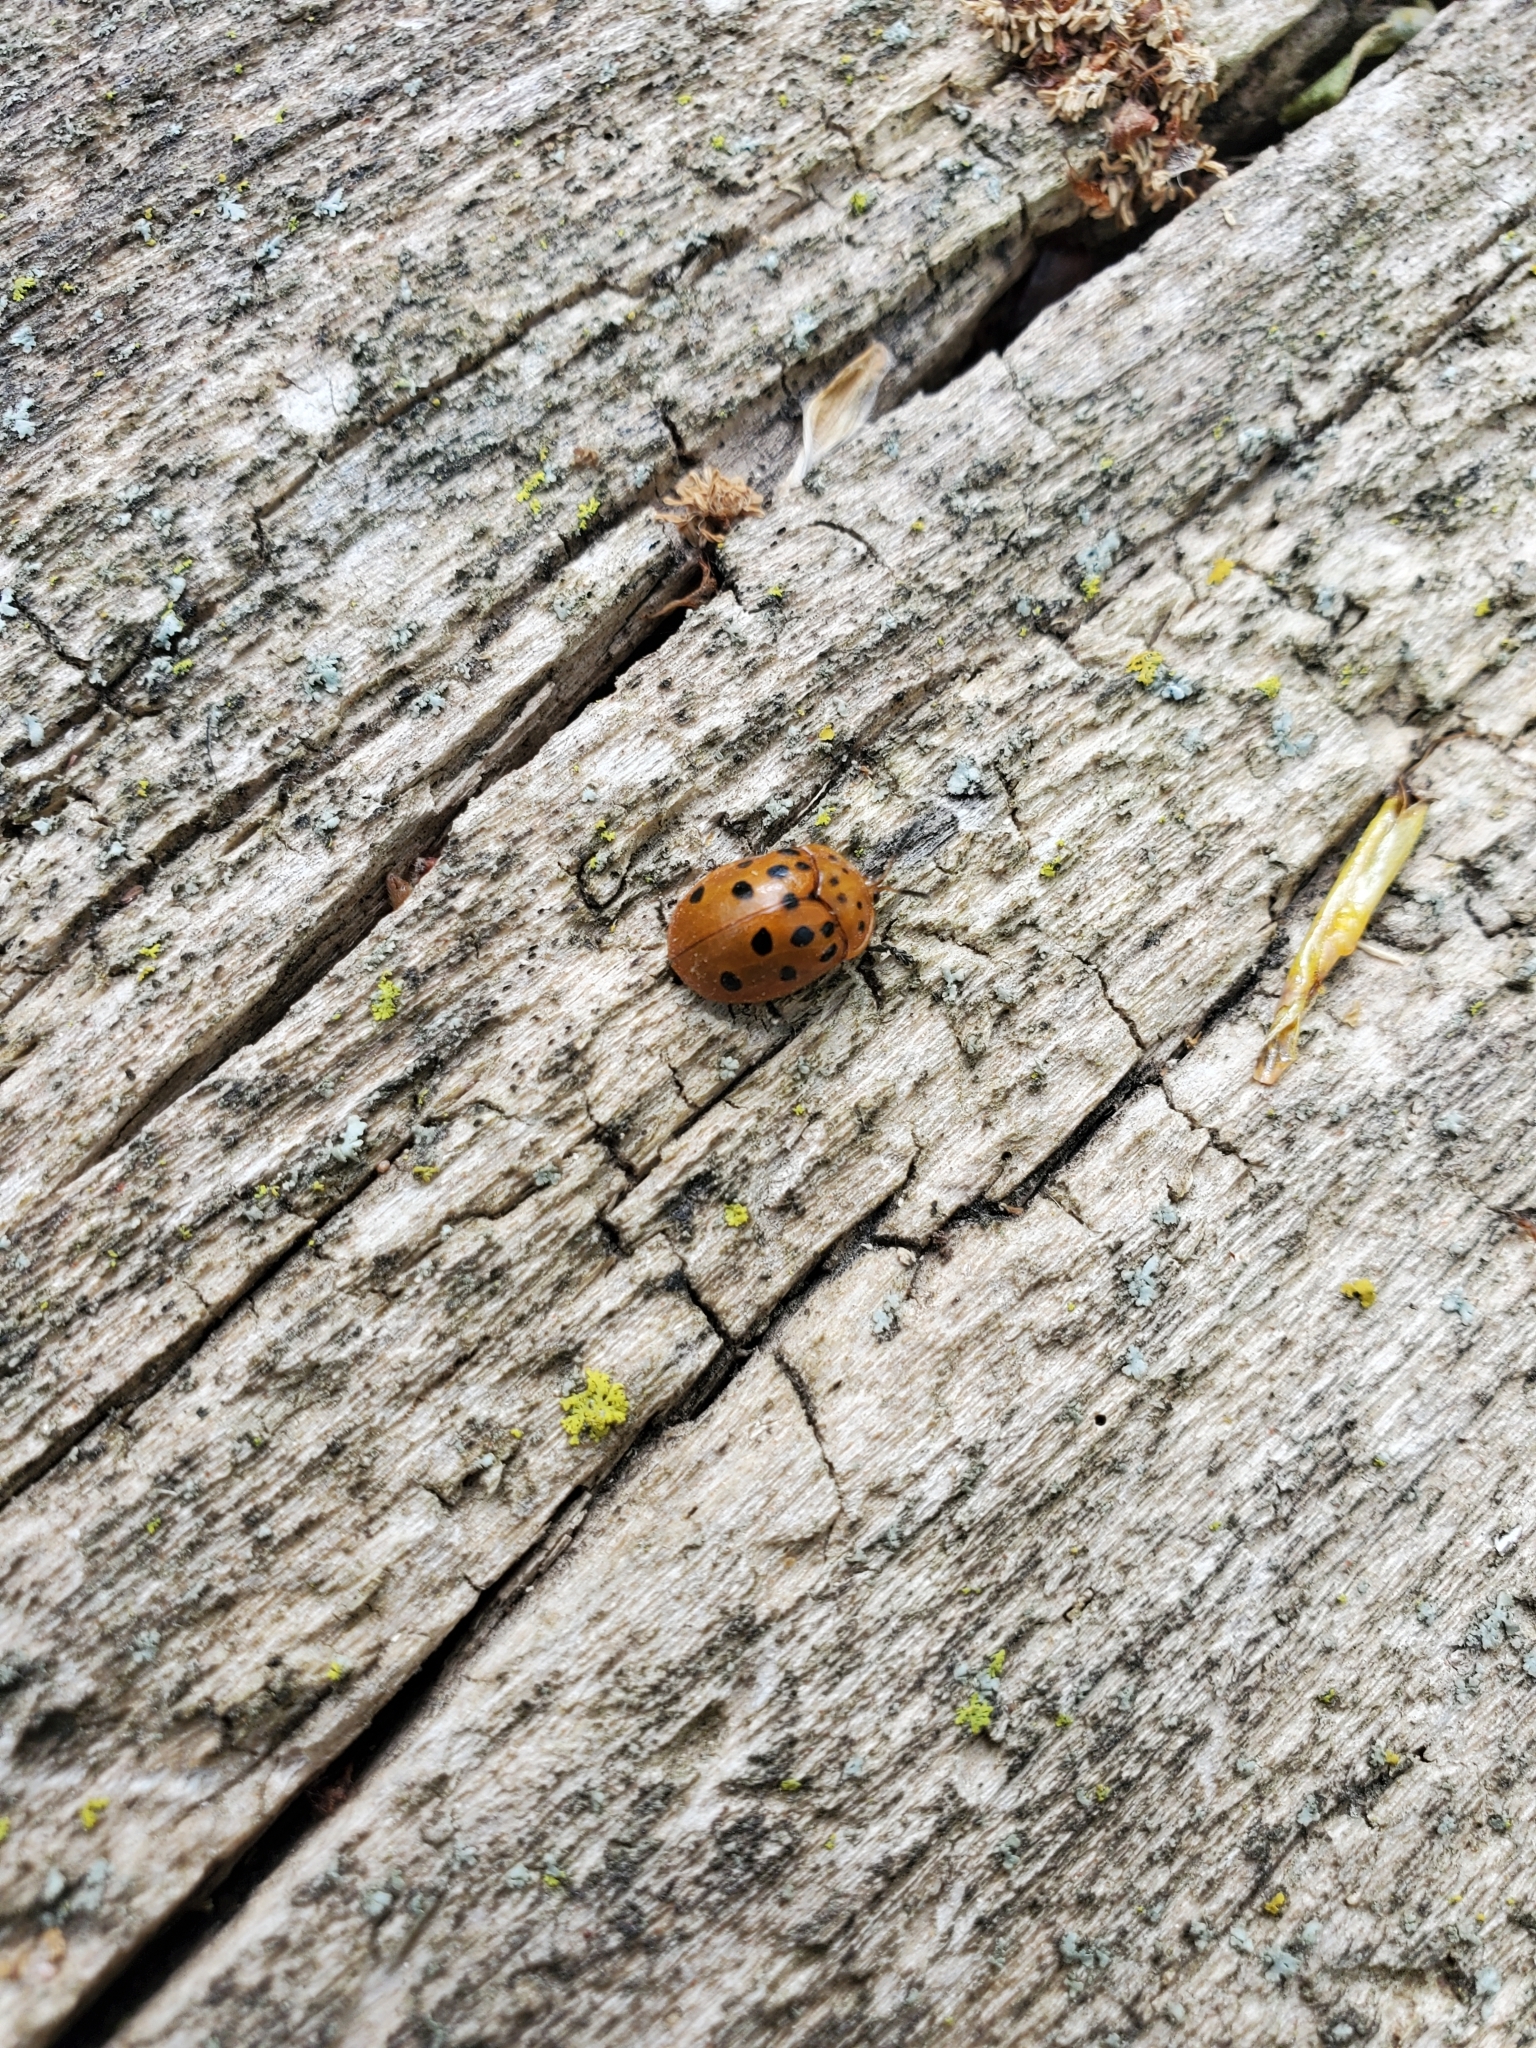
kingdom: Animalia
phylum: Arthropoda
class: Insecta
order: Coleoptera
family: Chrysomelidae
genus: Chelymorpha
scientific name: Chelymorpha cassidea
